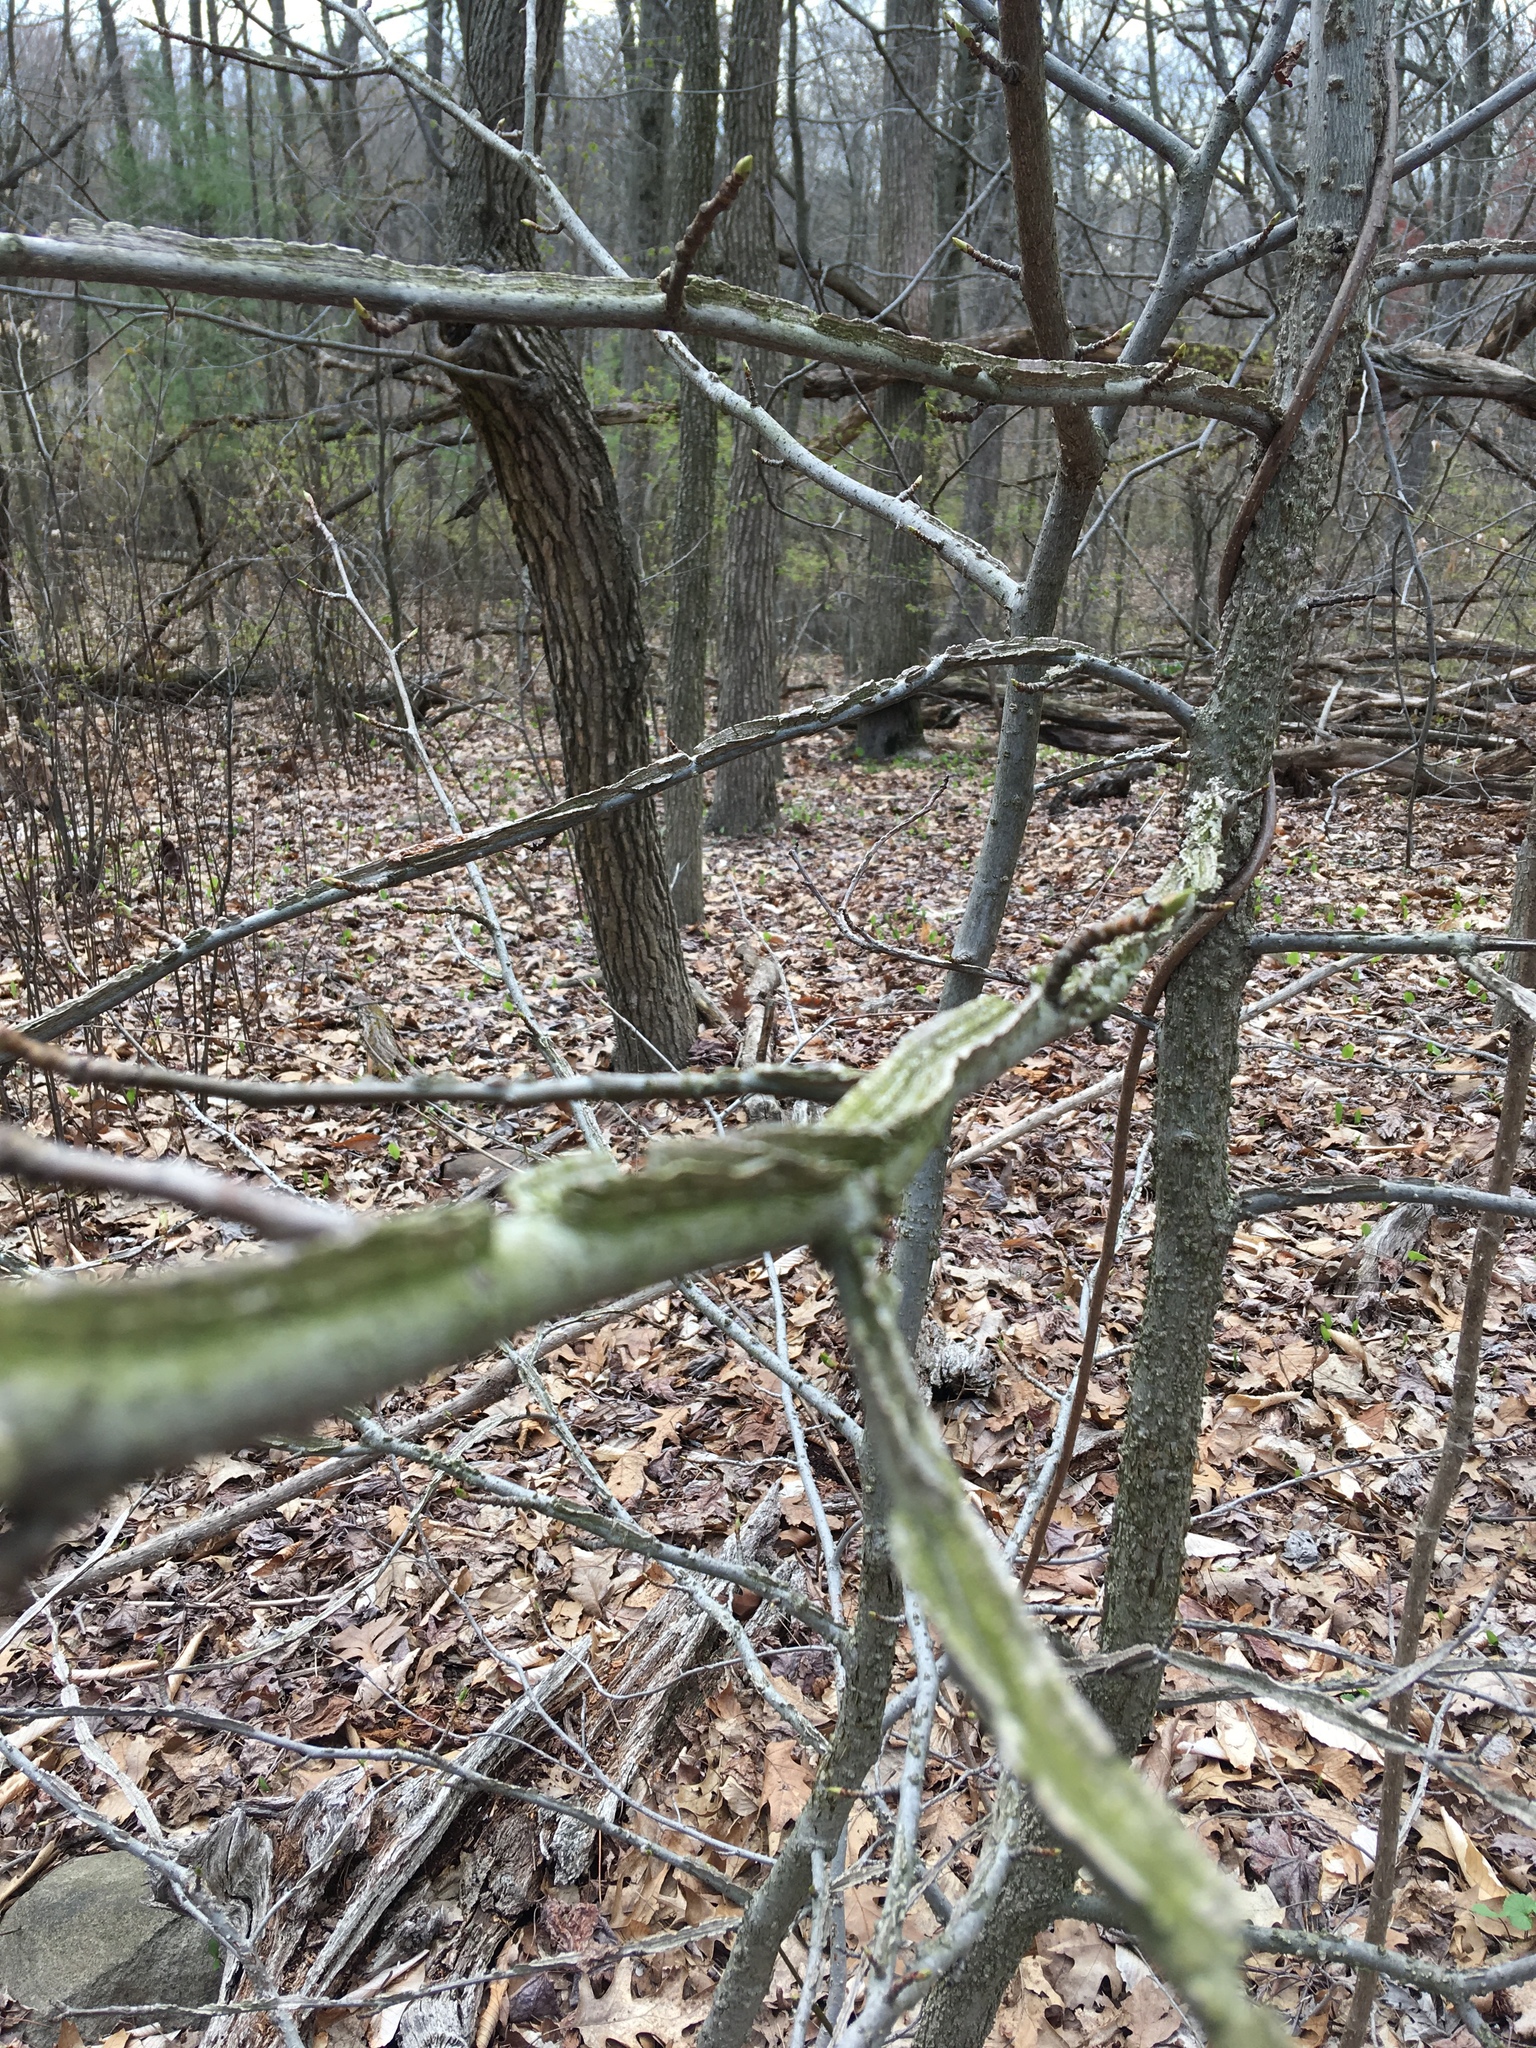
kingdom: Plantae
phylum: Tracheophyta
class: Magnoliopsida
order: Saxifragales
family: Altingiaceae
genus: Liquidambar
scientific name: Liquidambar styraciflua
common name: Sweet gum
